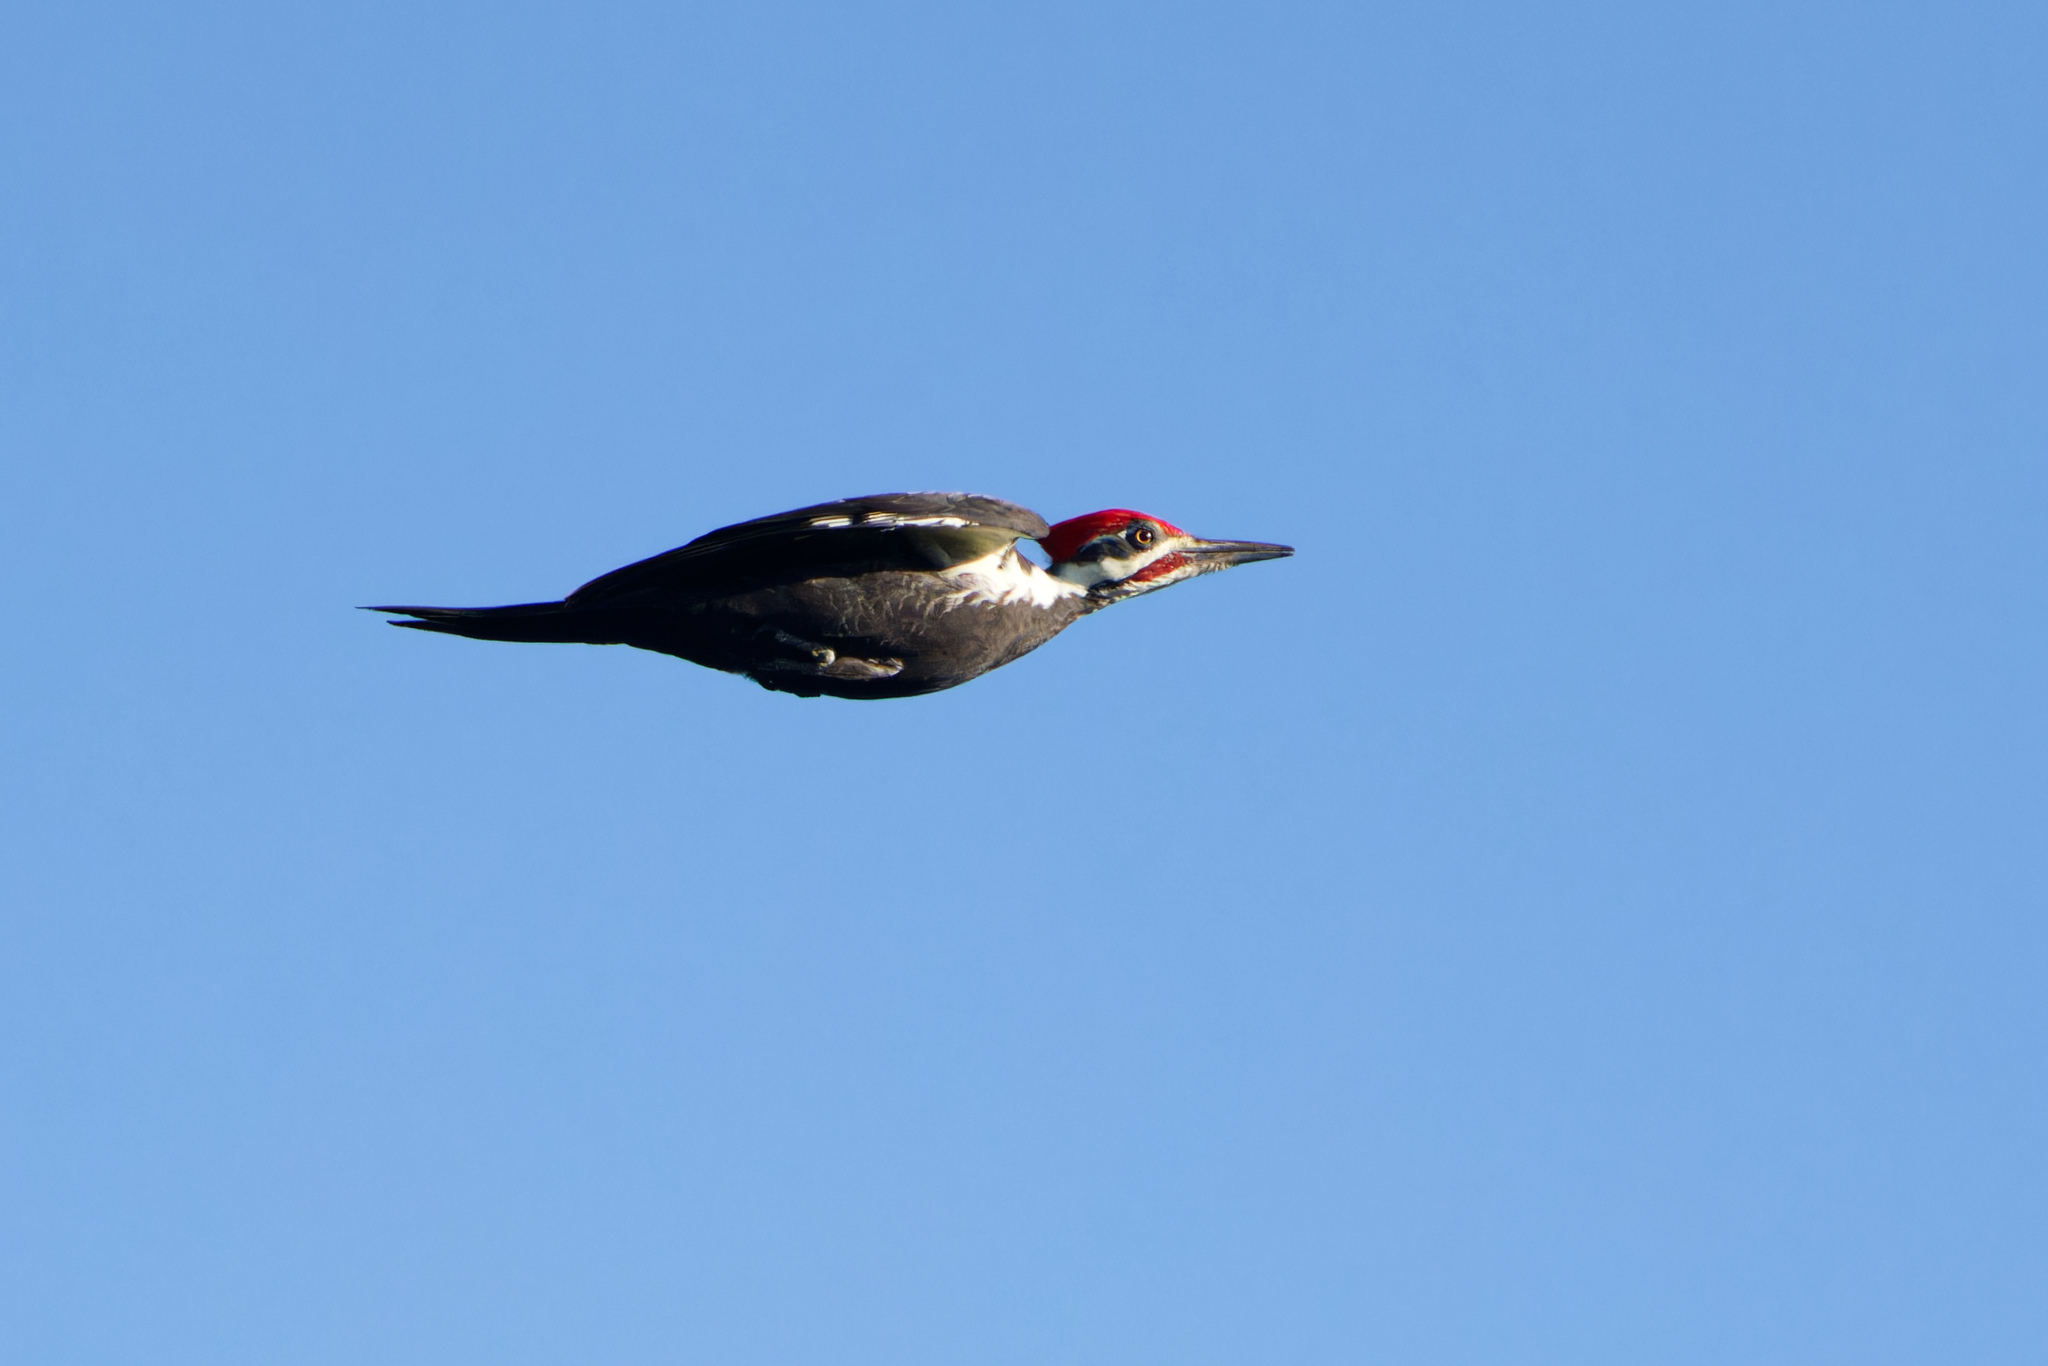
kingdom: Animalia
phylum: Chordata
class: Aves
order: Piciformes
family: Picidae
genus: Dryocopus
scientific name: Dryocopus pileatus
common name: Pileated woodpecker
